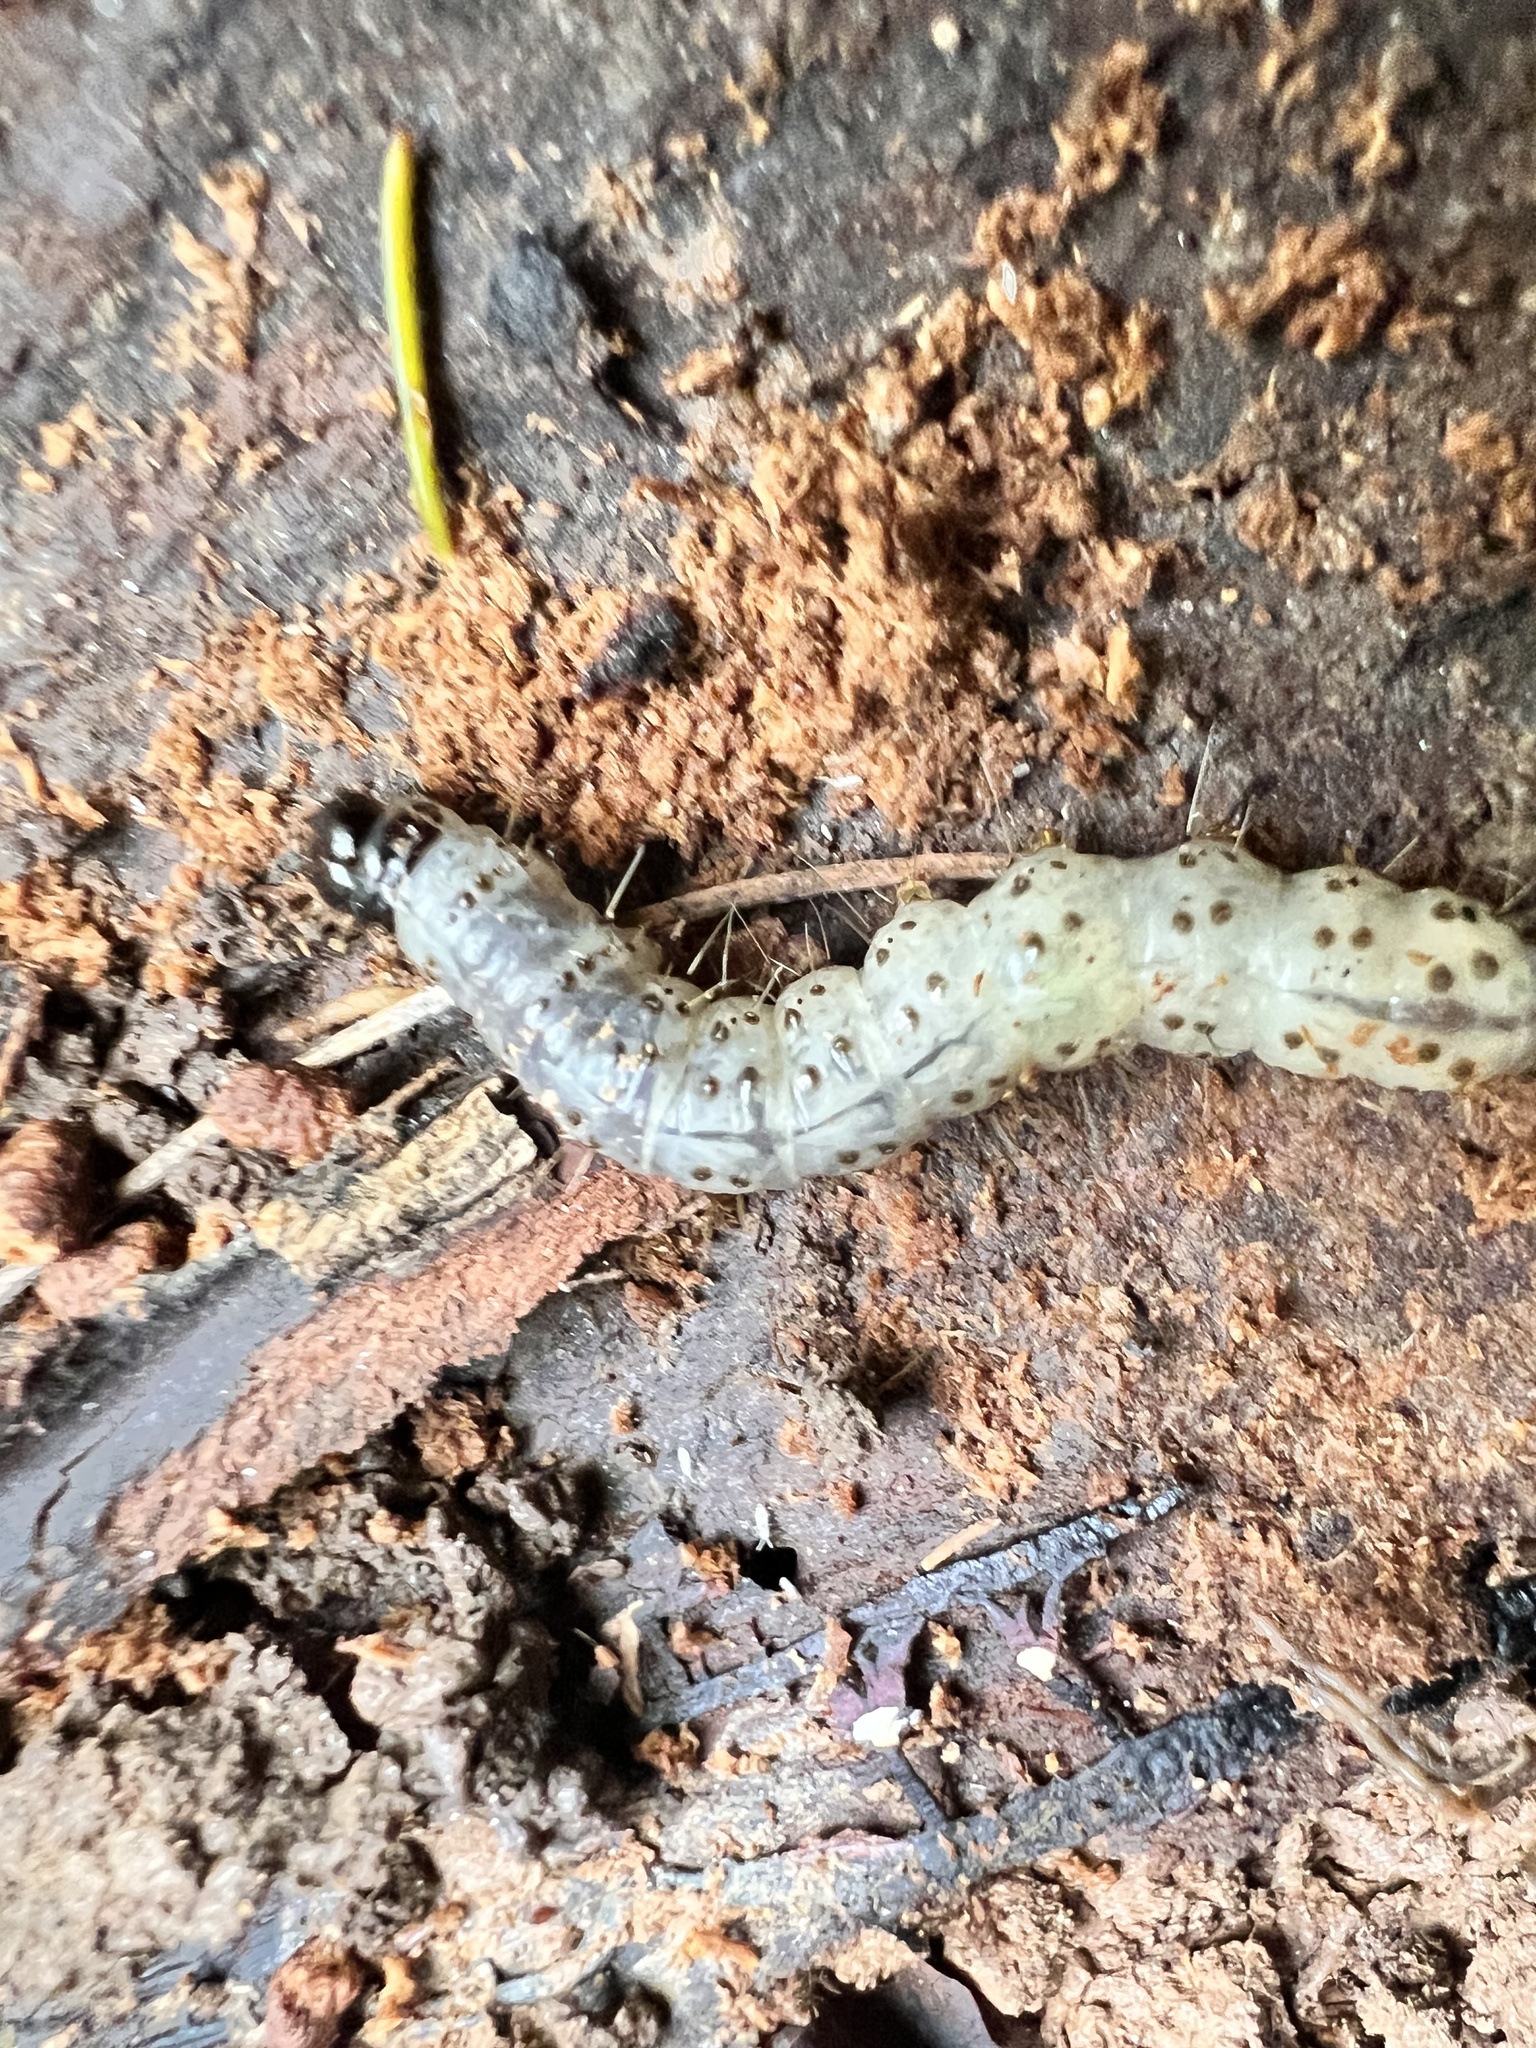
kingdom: Animalia
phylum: Arthropoda
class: Insecta
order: Lepidoptera
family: Erebidae
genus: Scolecocampa
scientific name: Scolecocampa liburna
